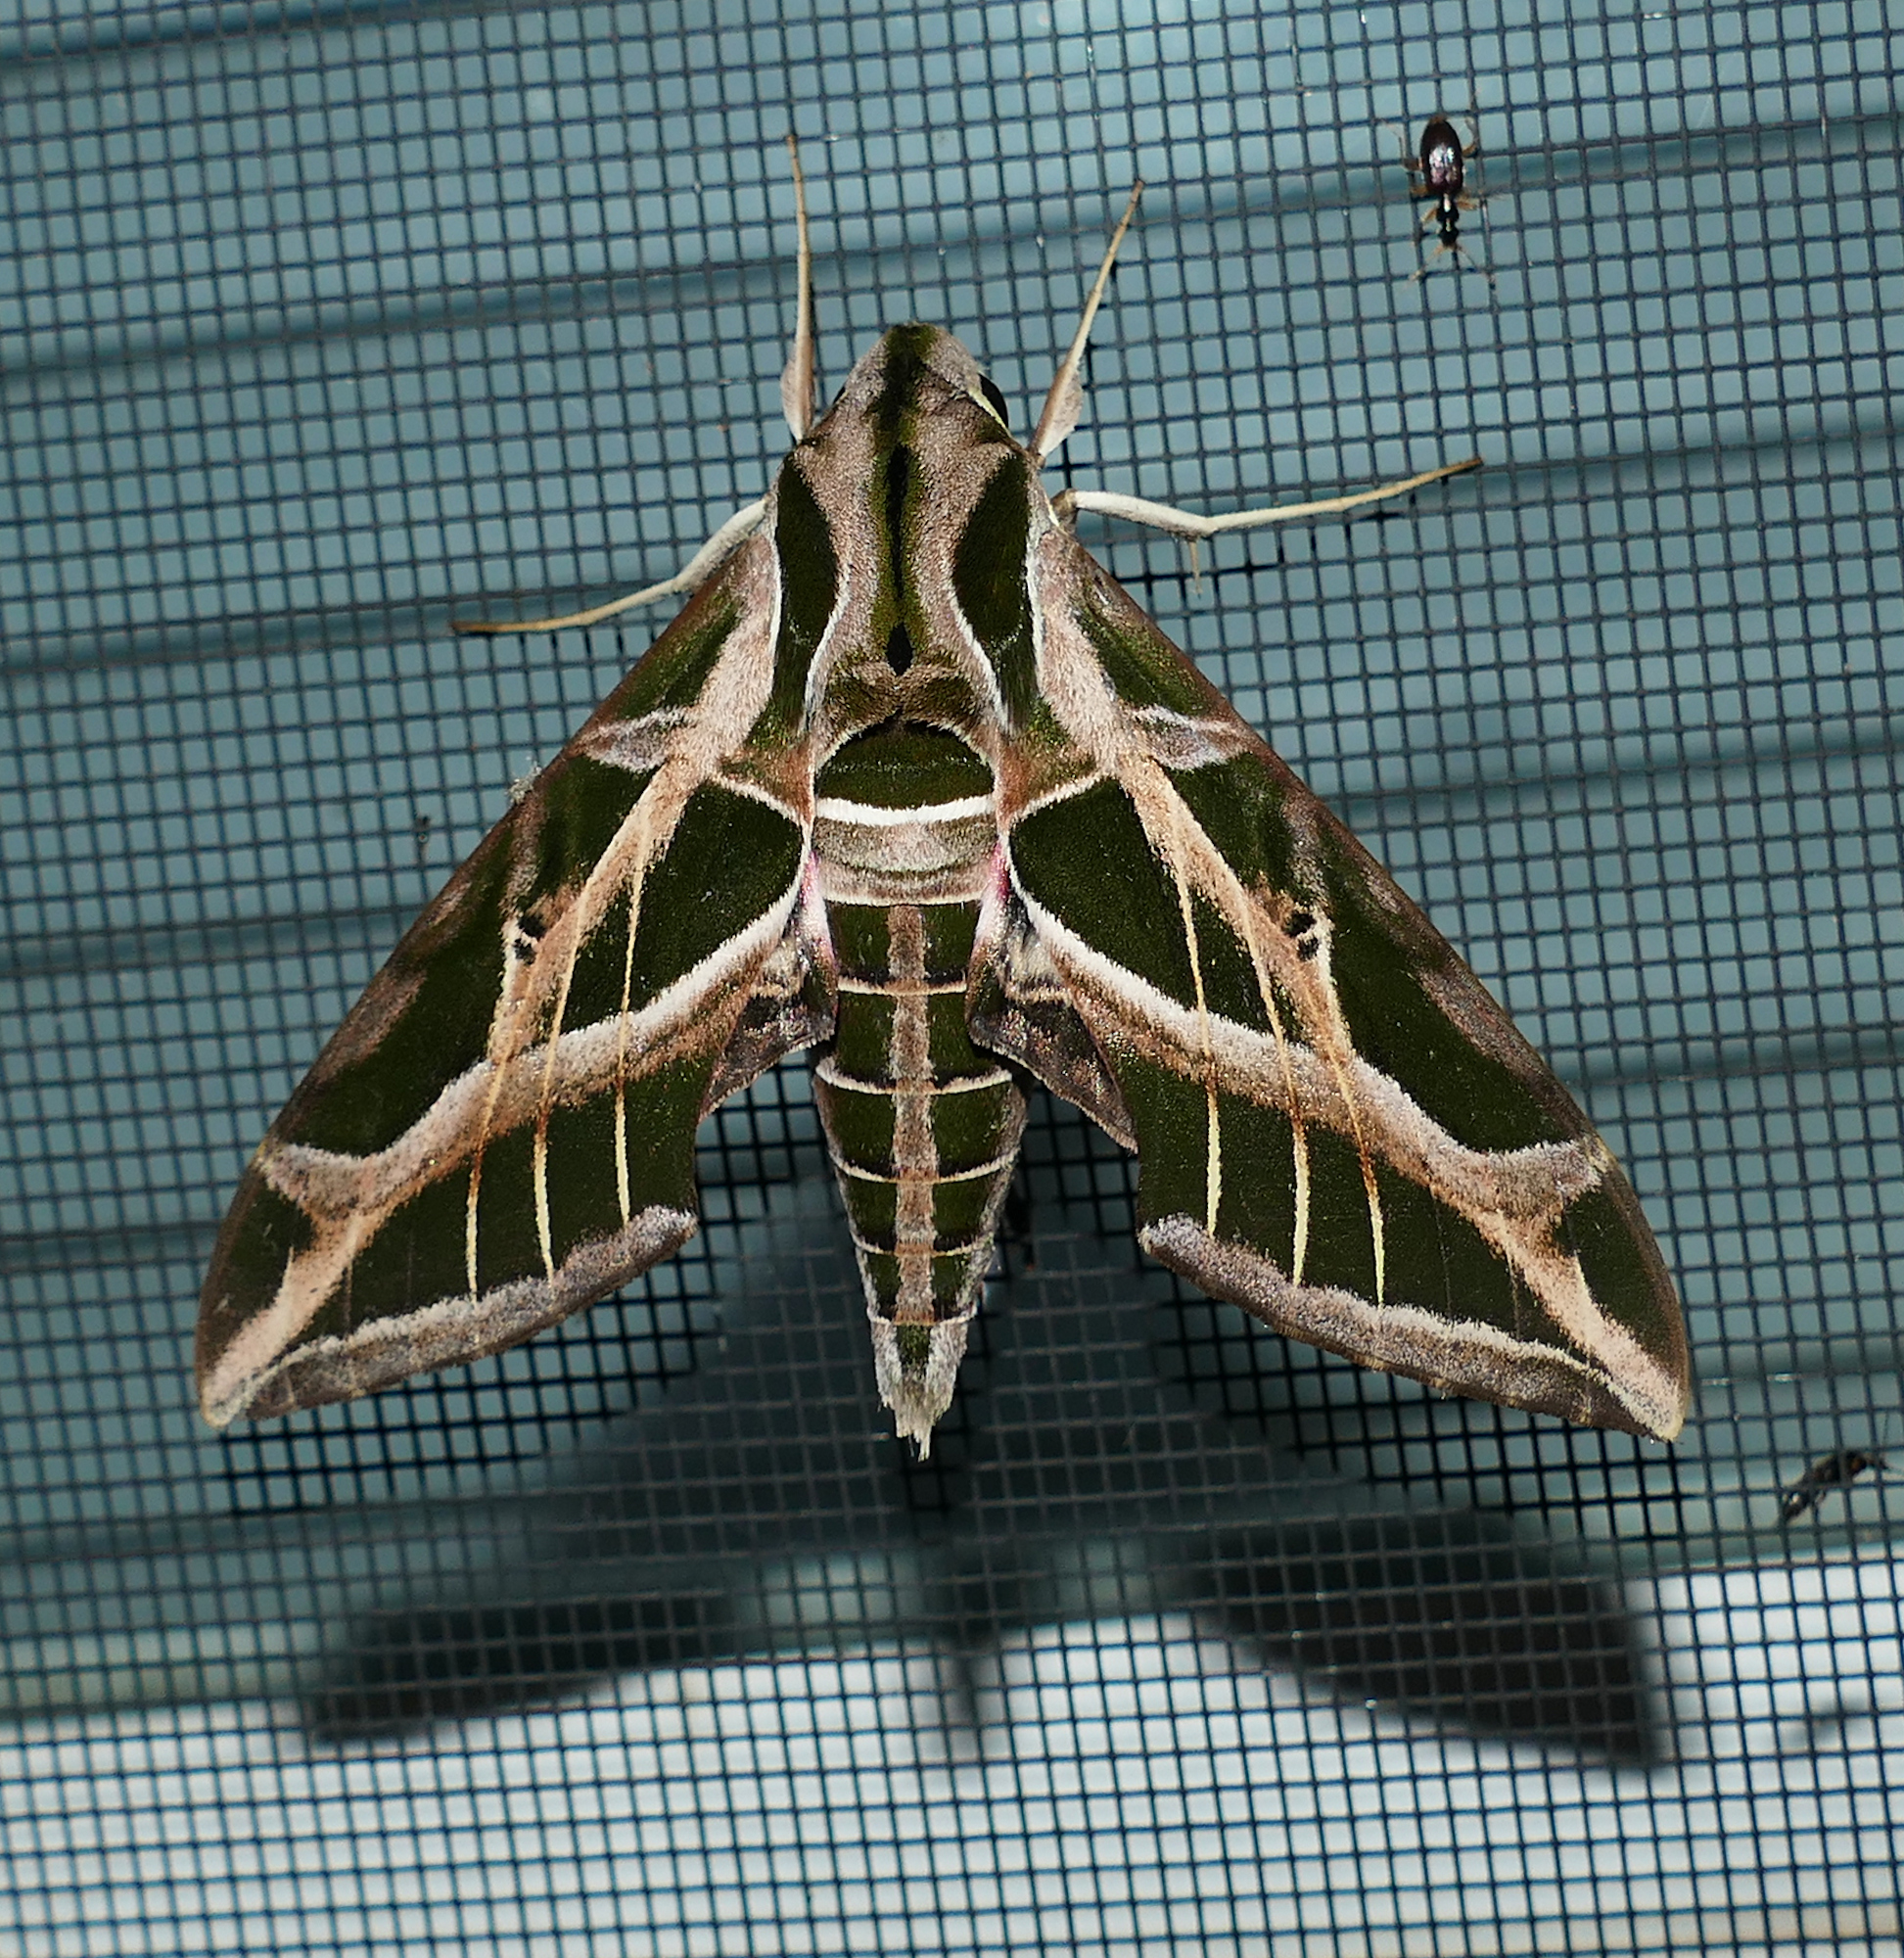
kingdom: Animalia
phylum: Arthropoda
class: Insecta
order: Lepidoptera
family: Sphingidae
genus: Eumorpha
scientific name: Eumorpha vitis
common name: Vine sphinx
